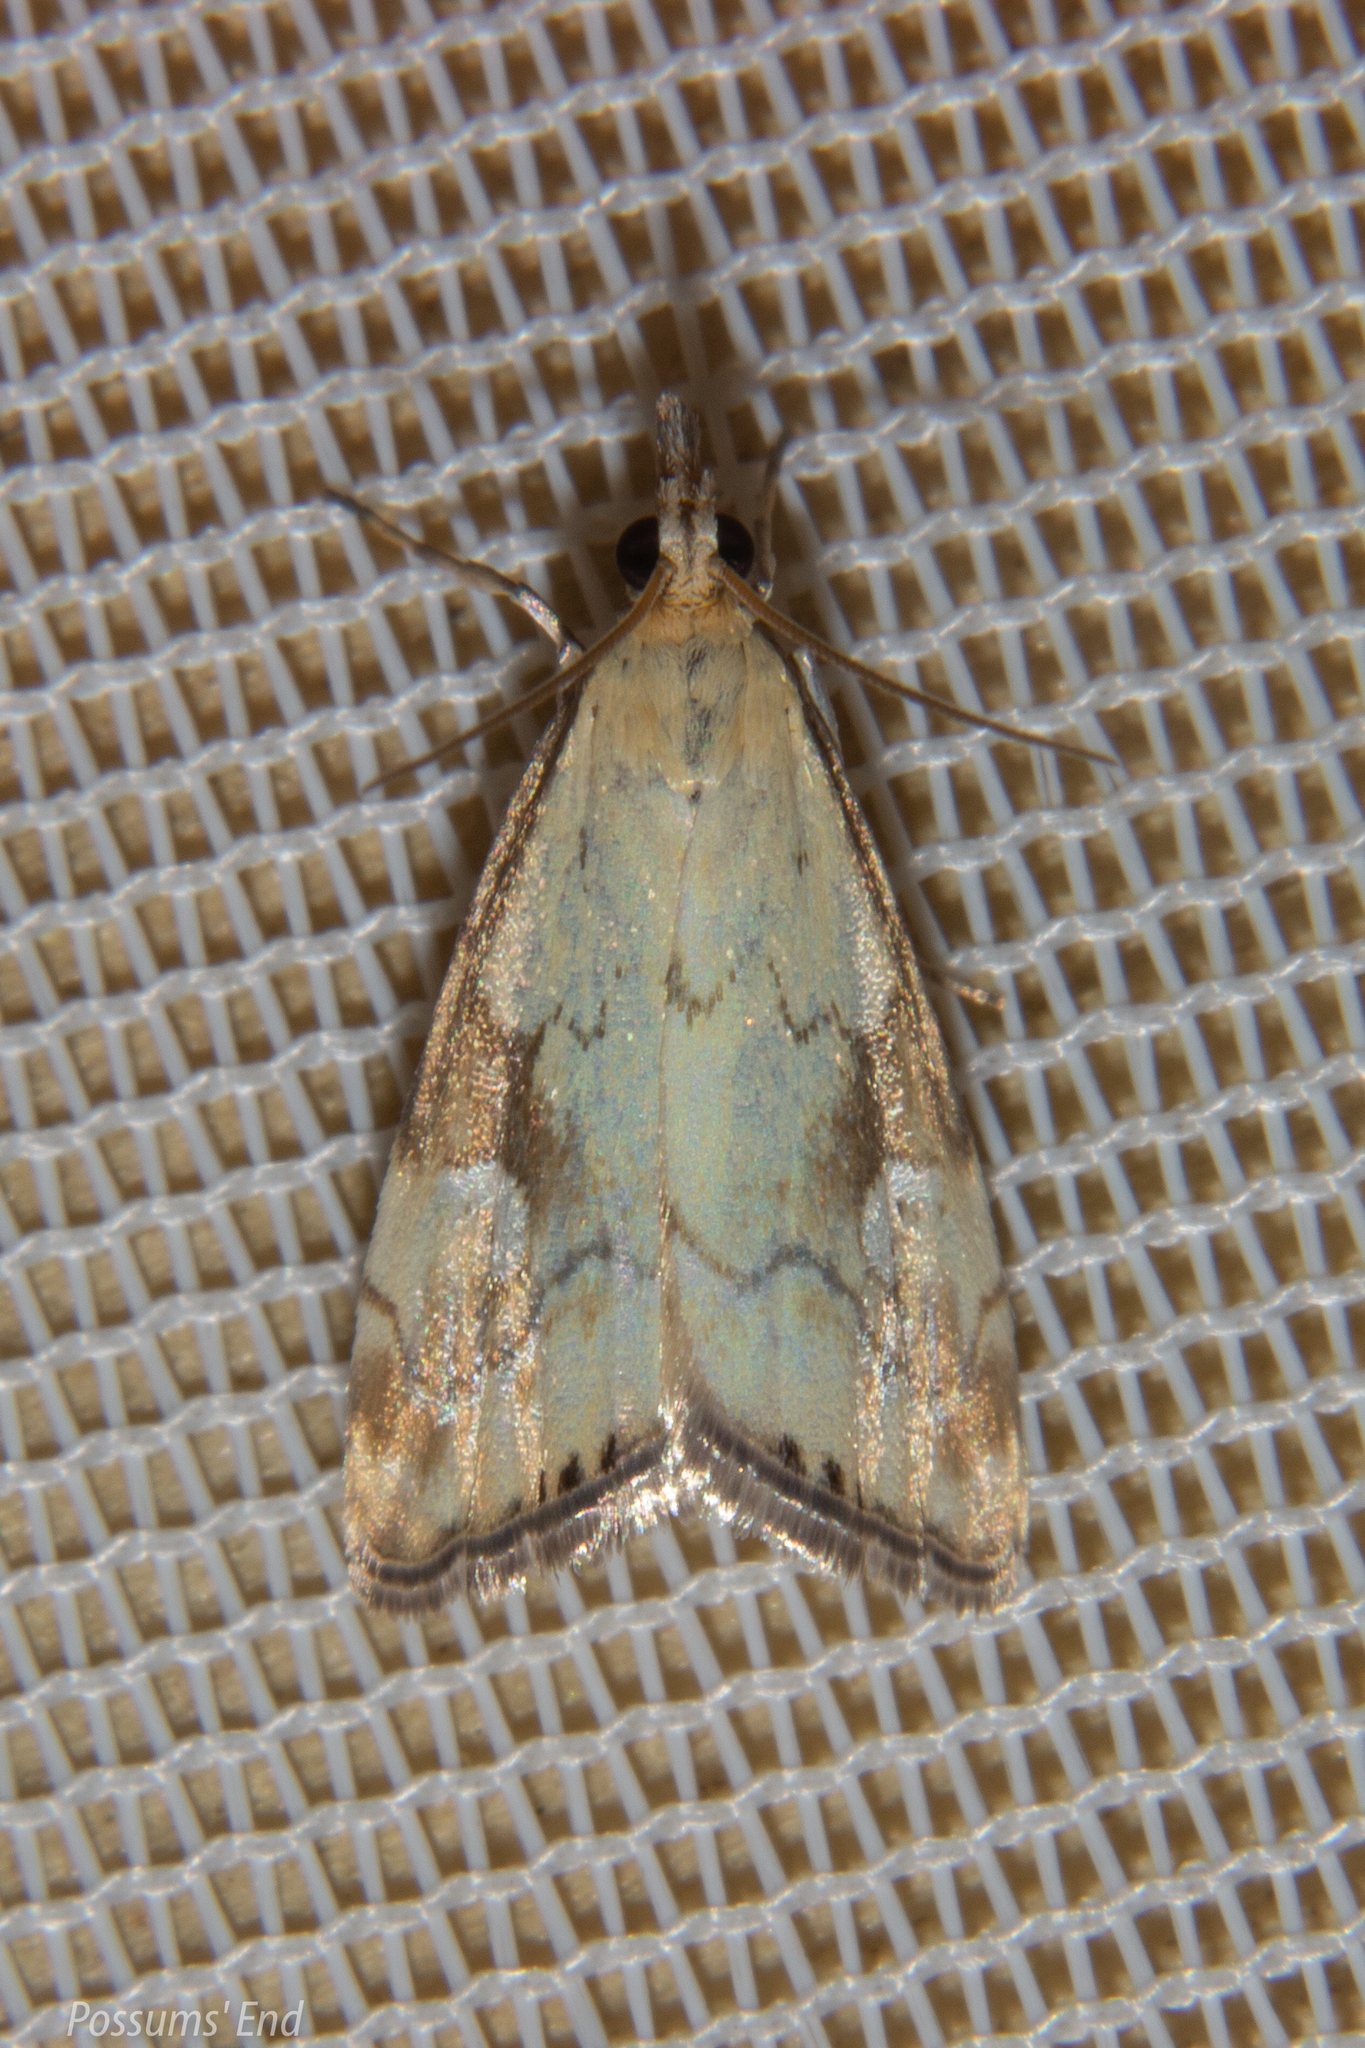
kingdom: Animalia
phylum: Arthropoda
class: Insecta
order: Lepidoptera
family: Crambidae
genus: Glaucocharis
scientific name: Glaucocharis lepidella
